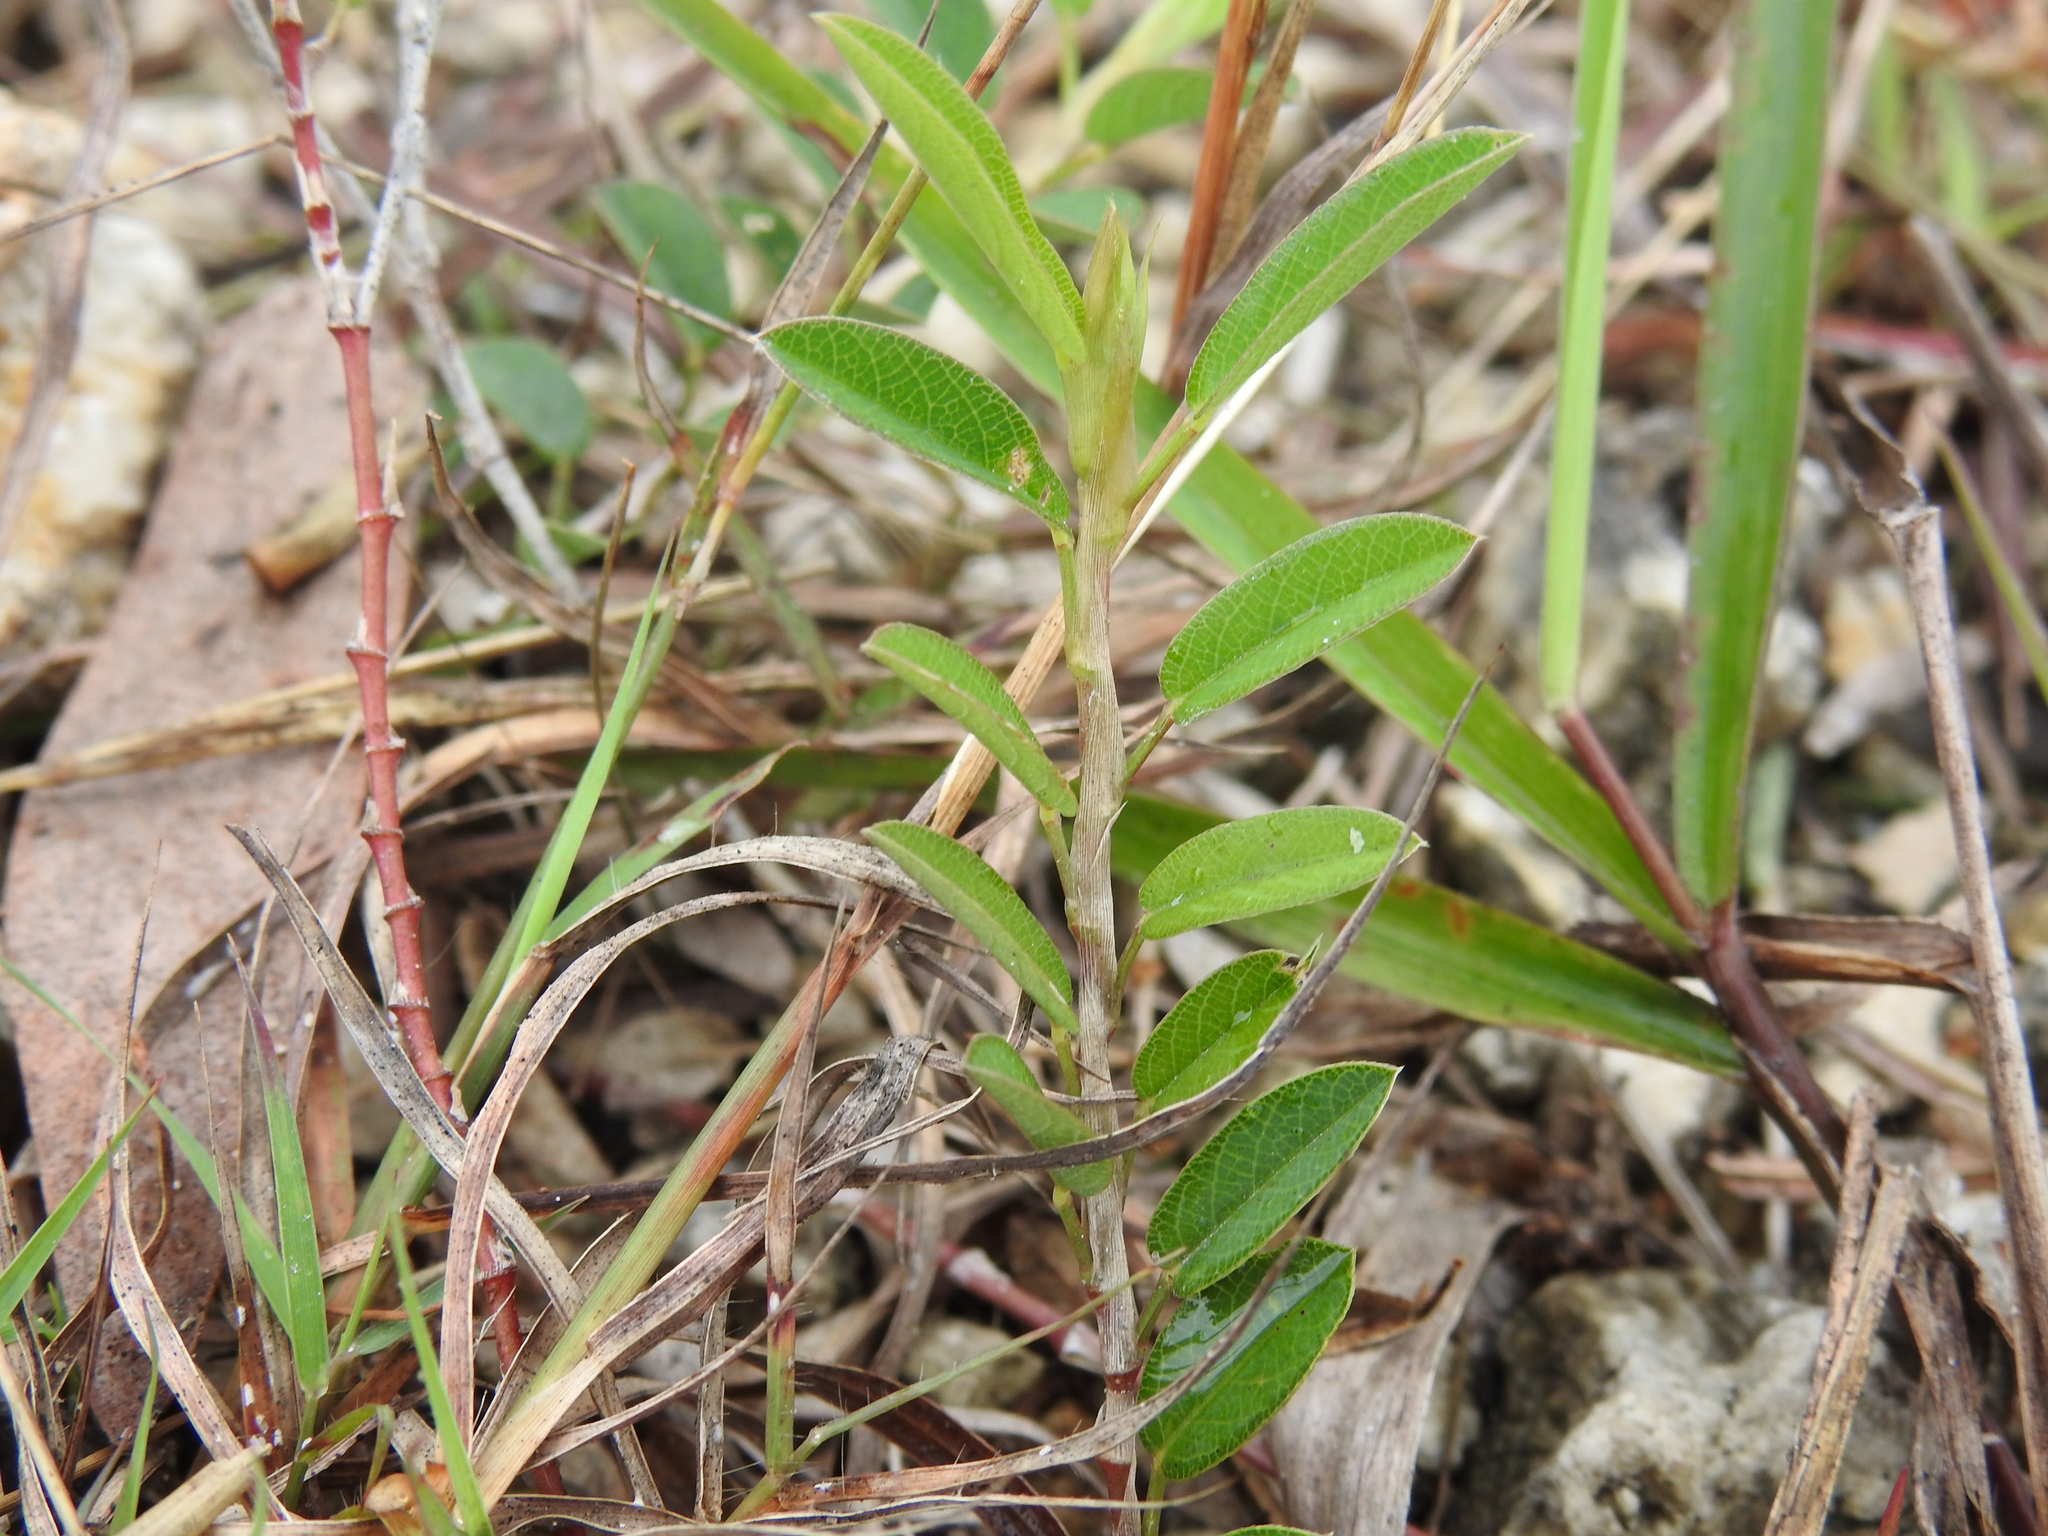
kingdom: Plantae
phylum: Tracheophyta
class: Magnoliopsida
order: Fabales
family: Fabaceae
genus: Alysicarpus
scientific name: Alysicarpus vaginalis
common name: White moneywort
